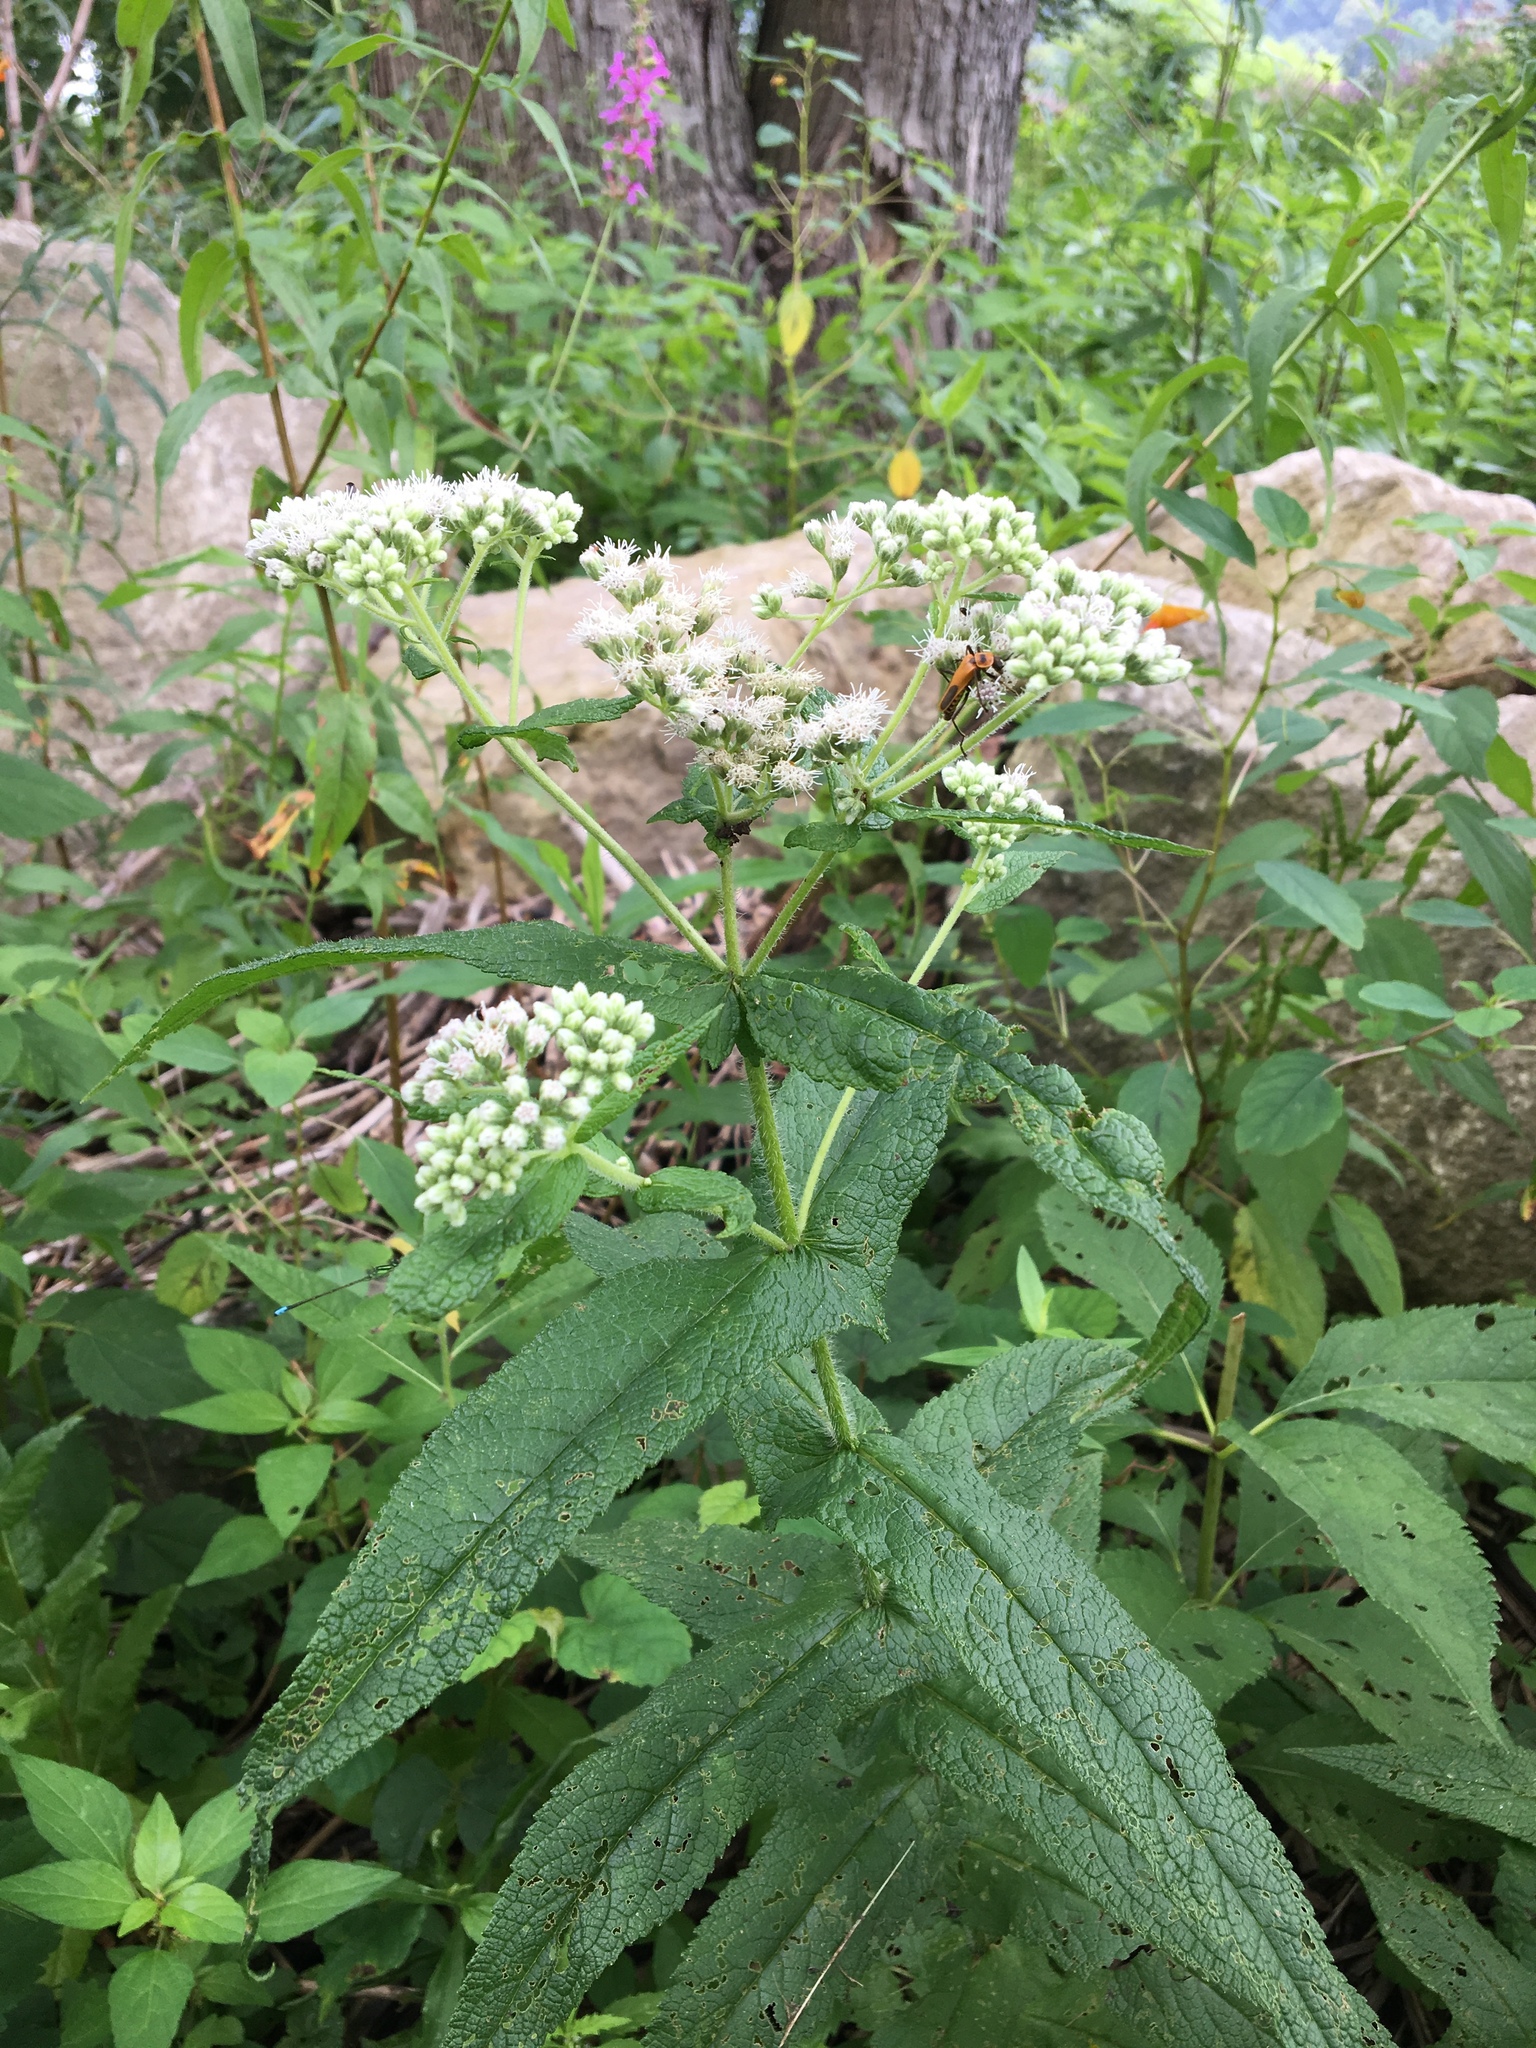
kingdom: Plantae
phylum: Tracheophyta
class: Magnoliopsida
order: Asterales
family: Asteraceae
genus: Eupatorium
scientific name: Eupatorium perfoliatum
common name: Boneset
